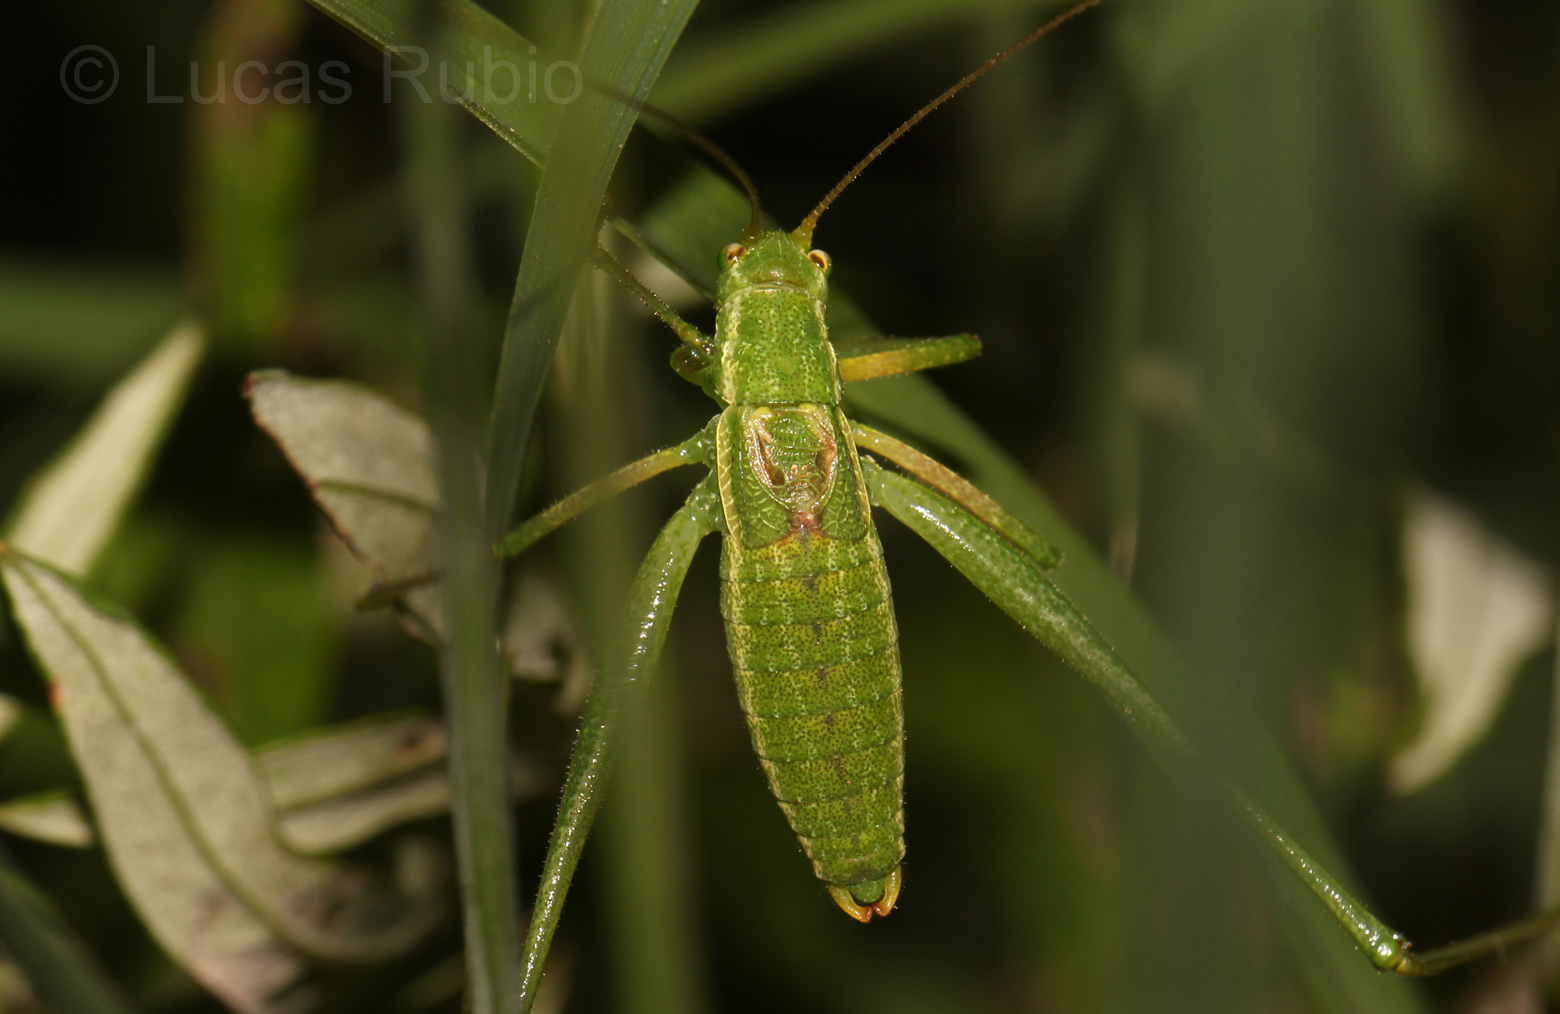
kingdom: Animalia
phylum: Arthropoda
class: Insecta
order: Orthoptera
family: Tettigoniidae
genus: Anisophya
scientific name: Anisophya punctinervis
